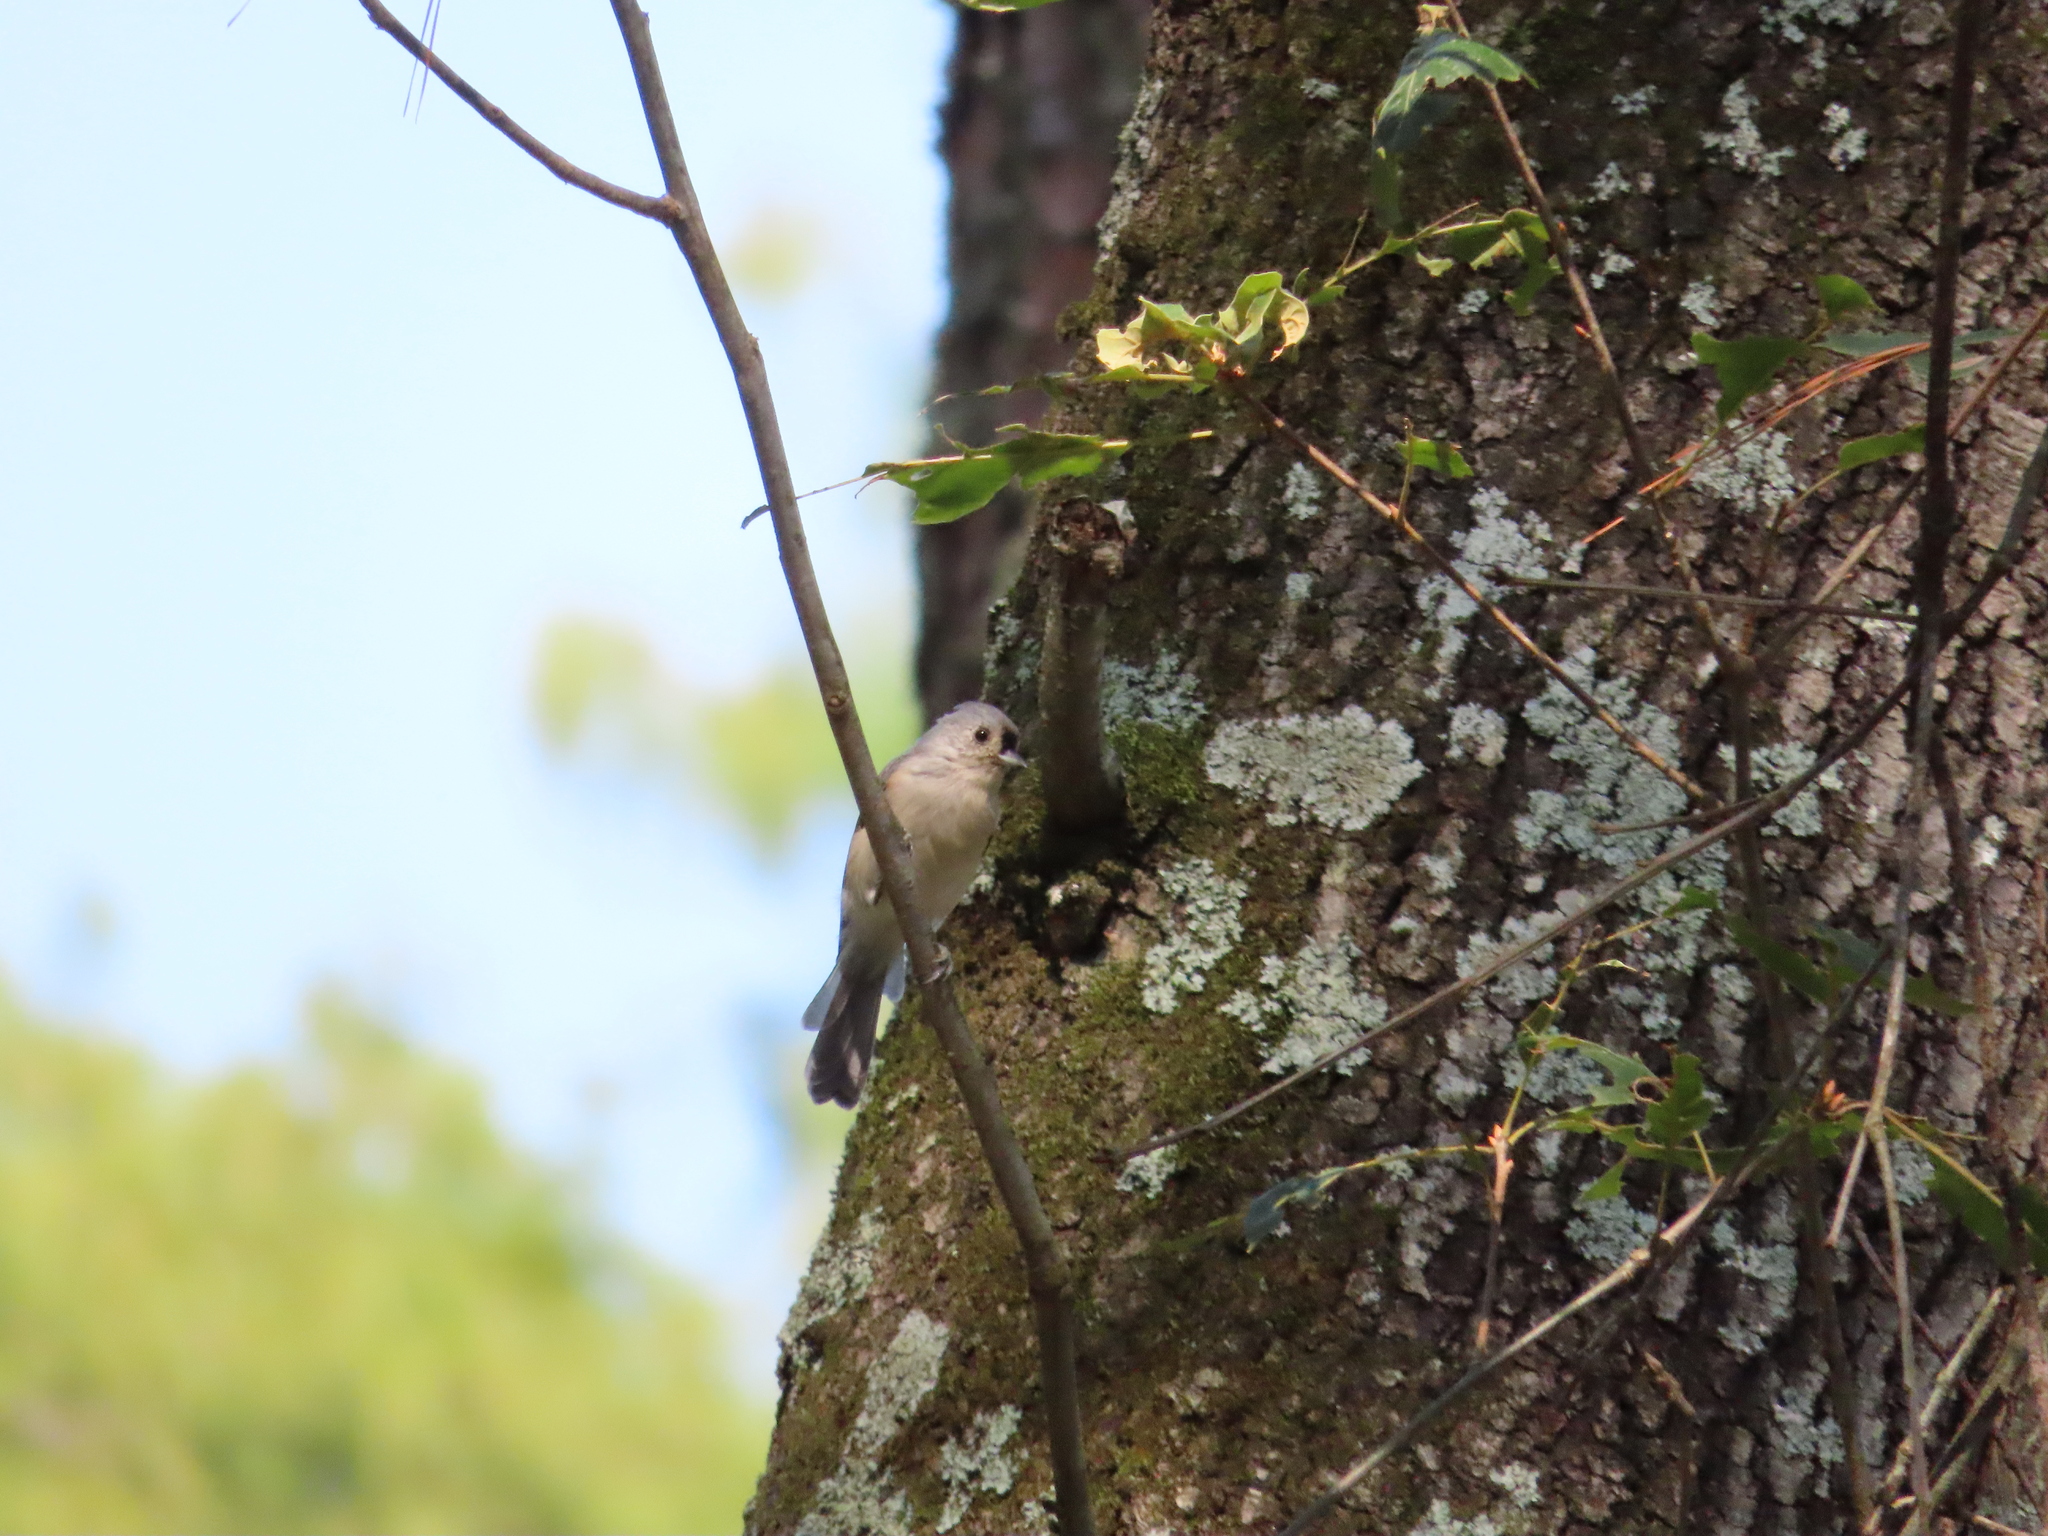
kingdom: Animalia
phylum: Chordata
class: Aves
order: Passeriformes
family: Paridae
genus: Baeolophus
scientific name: Baeolophus bicolor
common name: Tufted titmouse
